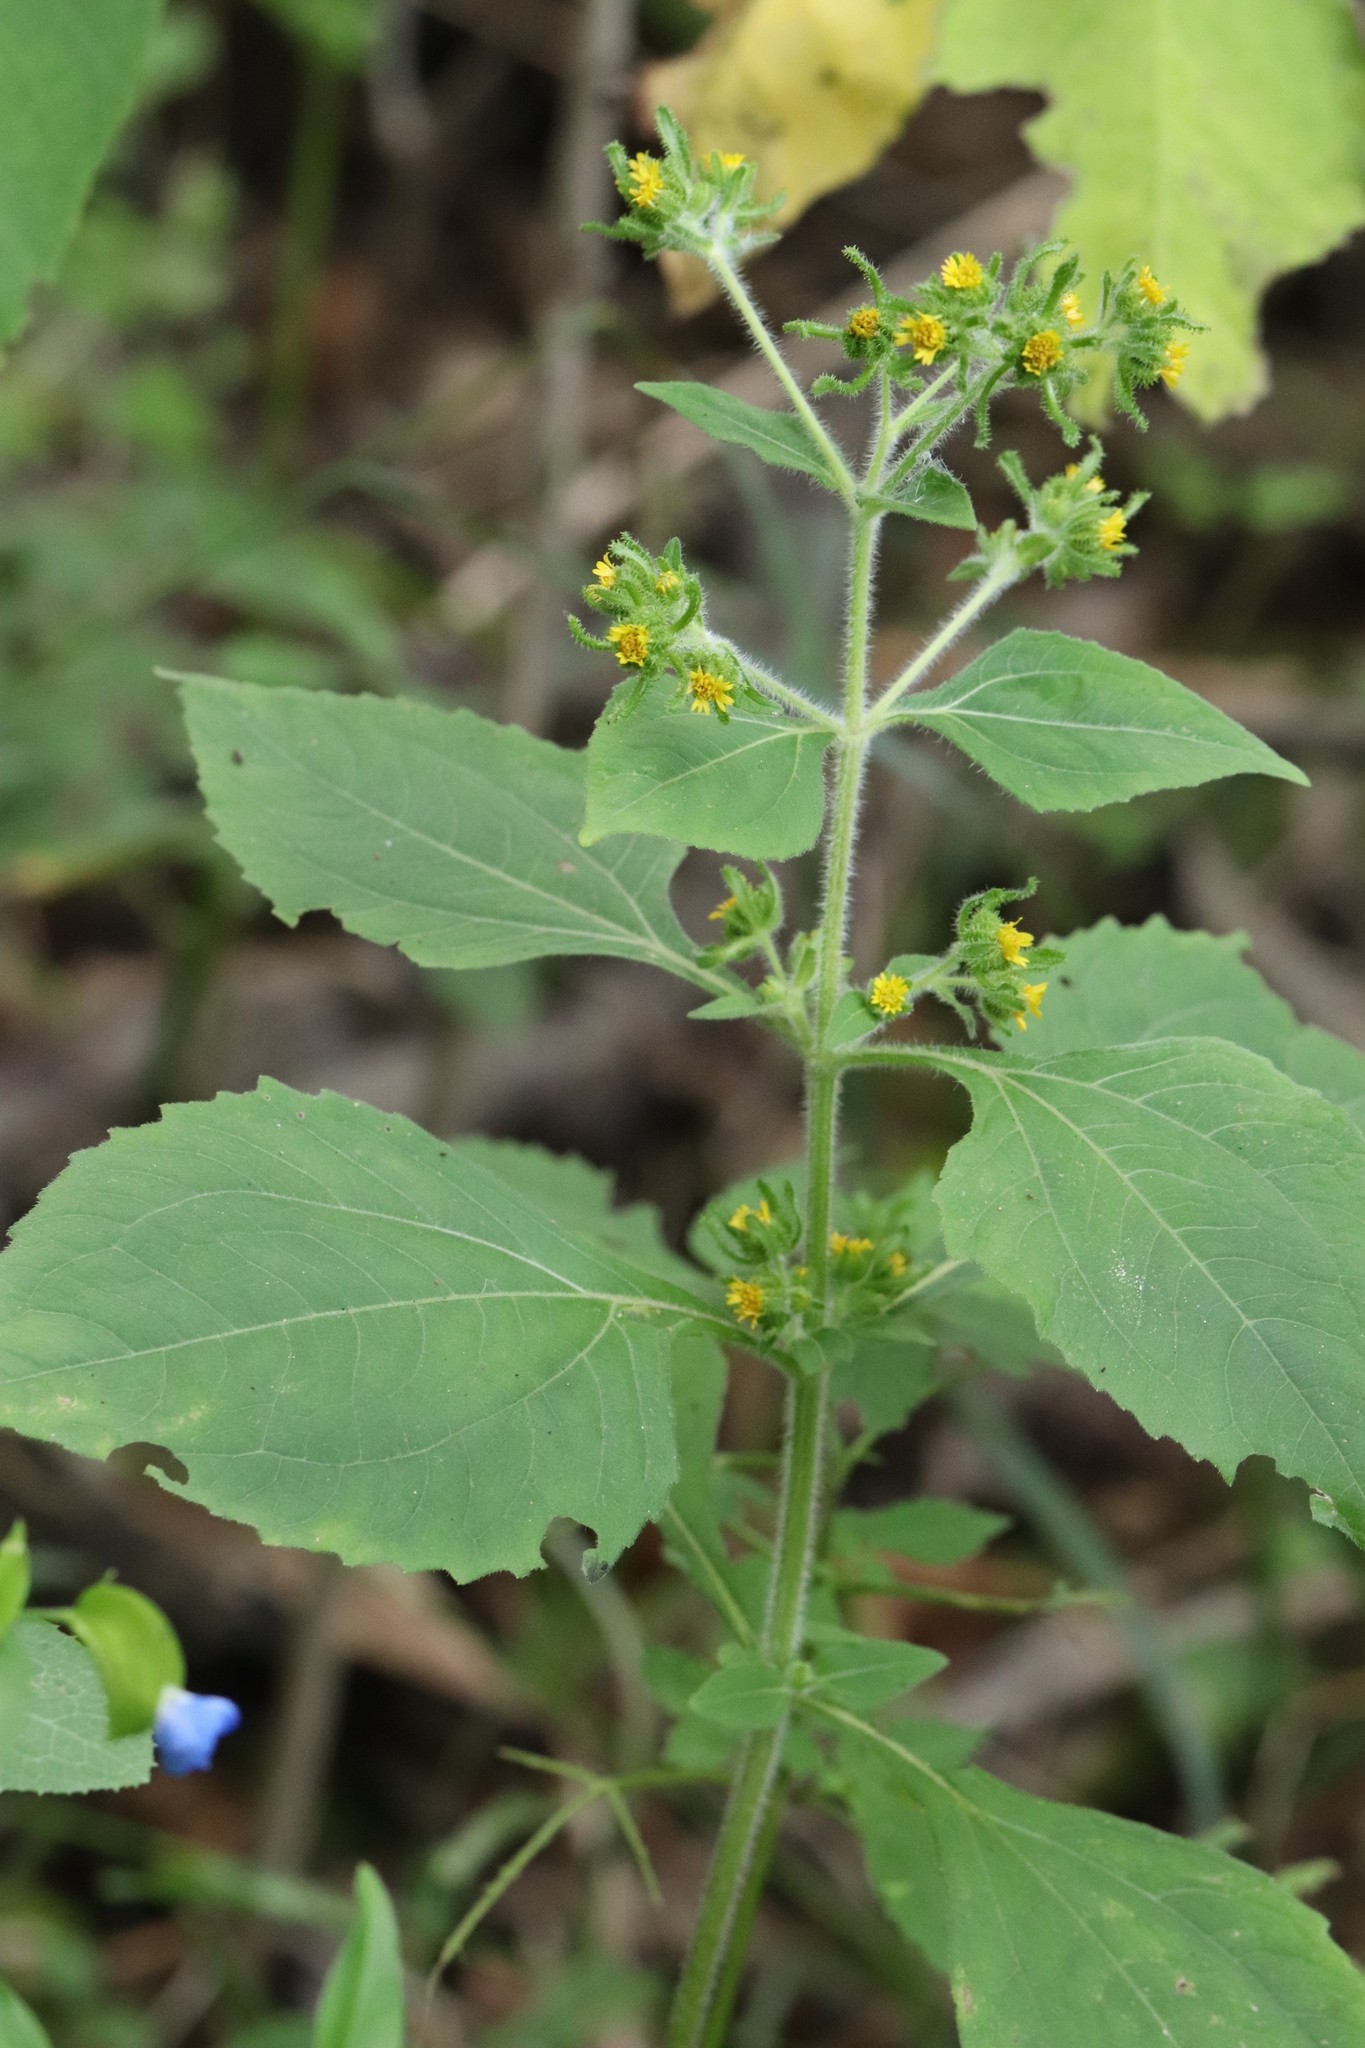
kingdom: Plantae
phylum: Tracheophyta
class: Magnoliopsida
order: Asterales
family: Asteraceae
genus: Sigesbeckia
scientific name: Sigesbeckia orientalis
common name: Eastern st paul's-wort
